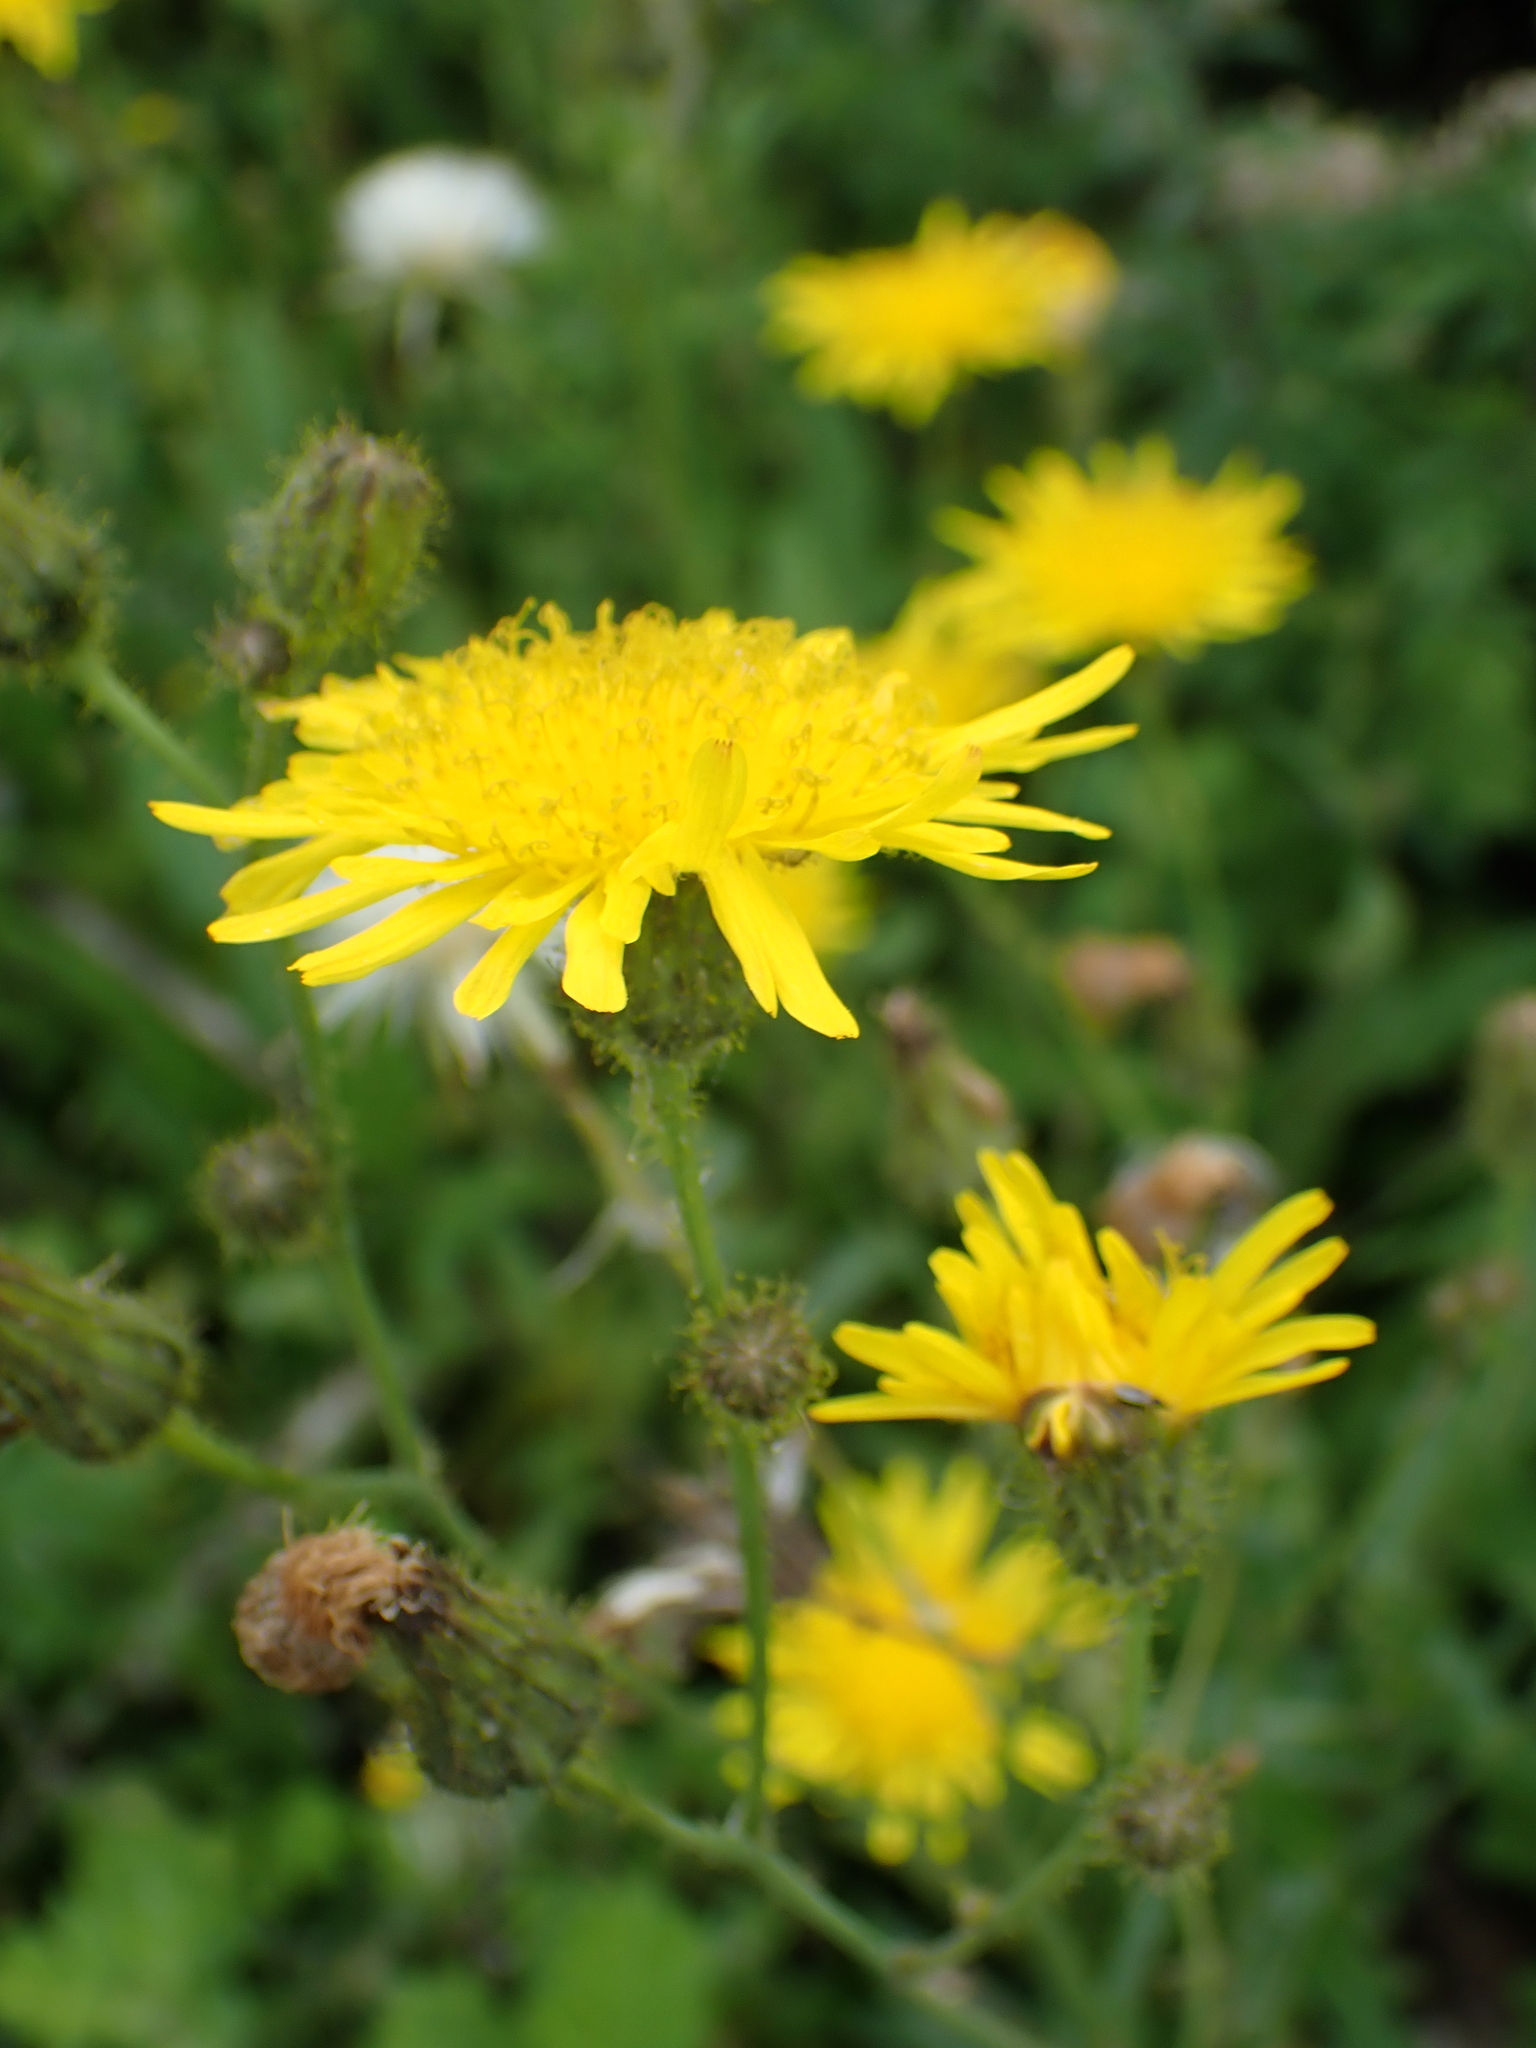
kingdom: Plantae
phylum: Tracheophyta
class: Magnoliopsida
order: Asterales
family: Asteraceae
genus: Sonchus
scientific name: Sonchus arvensis
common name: Perennial sow-thistle
